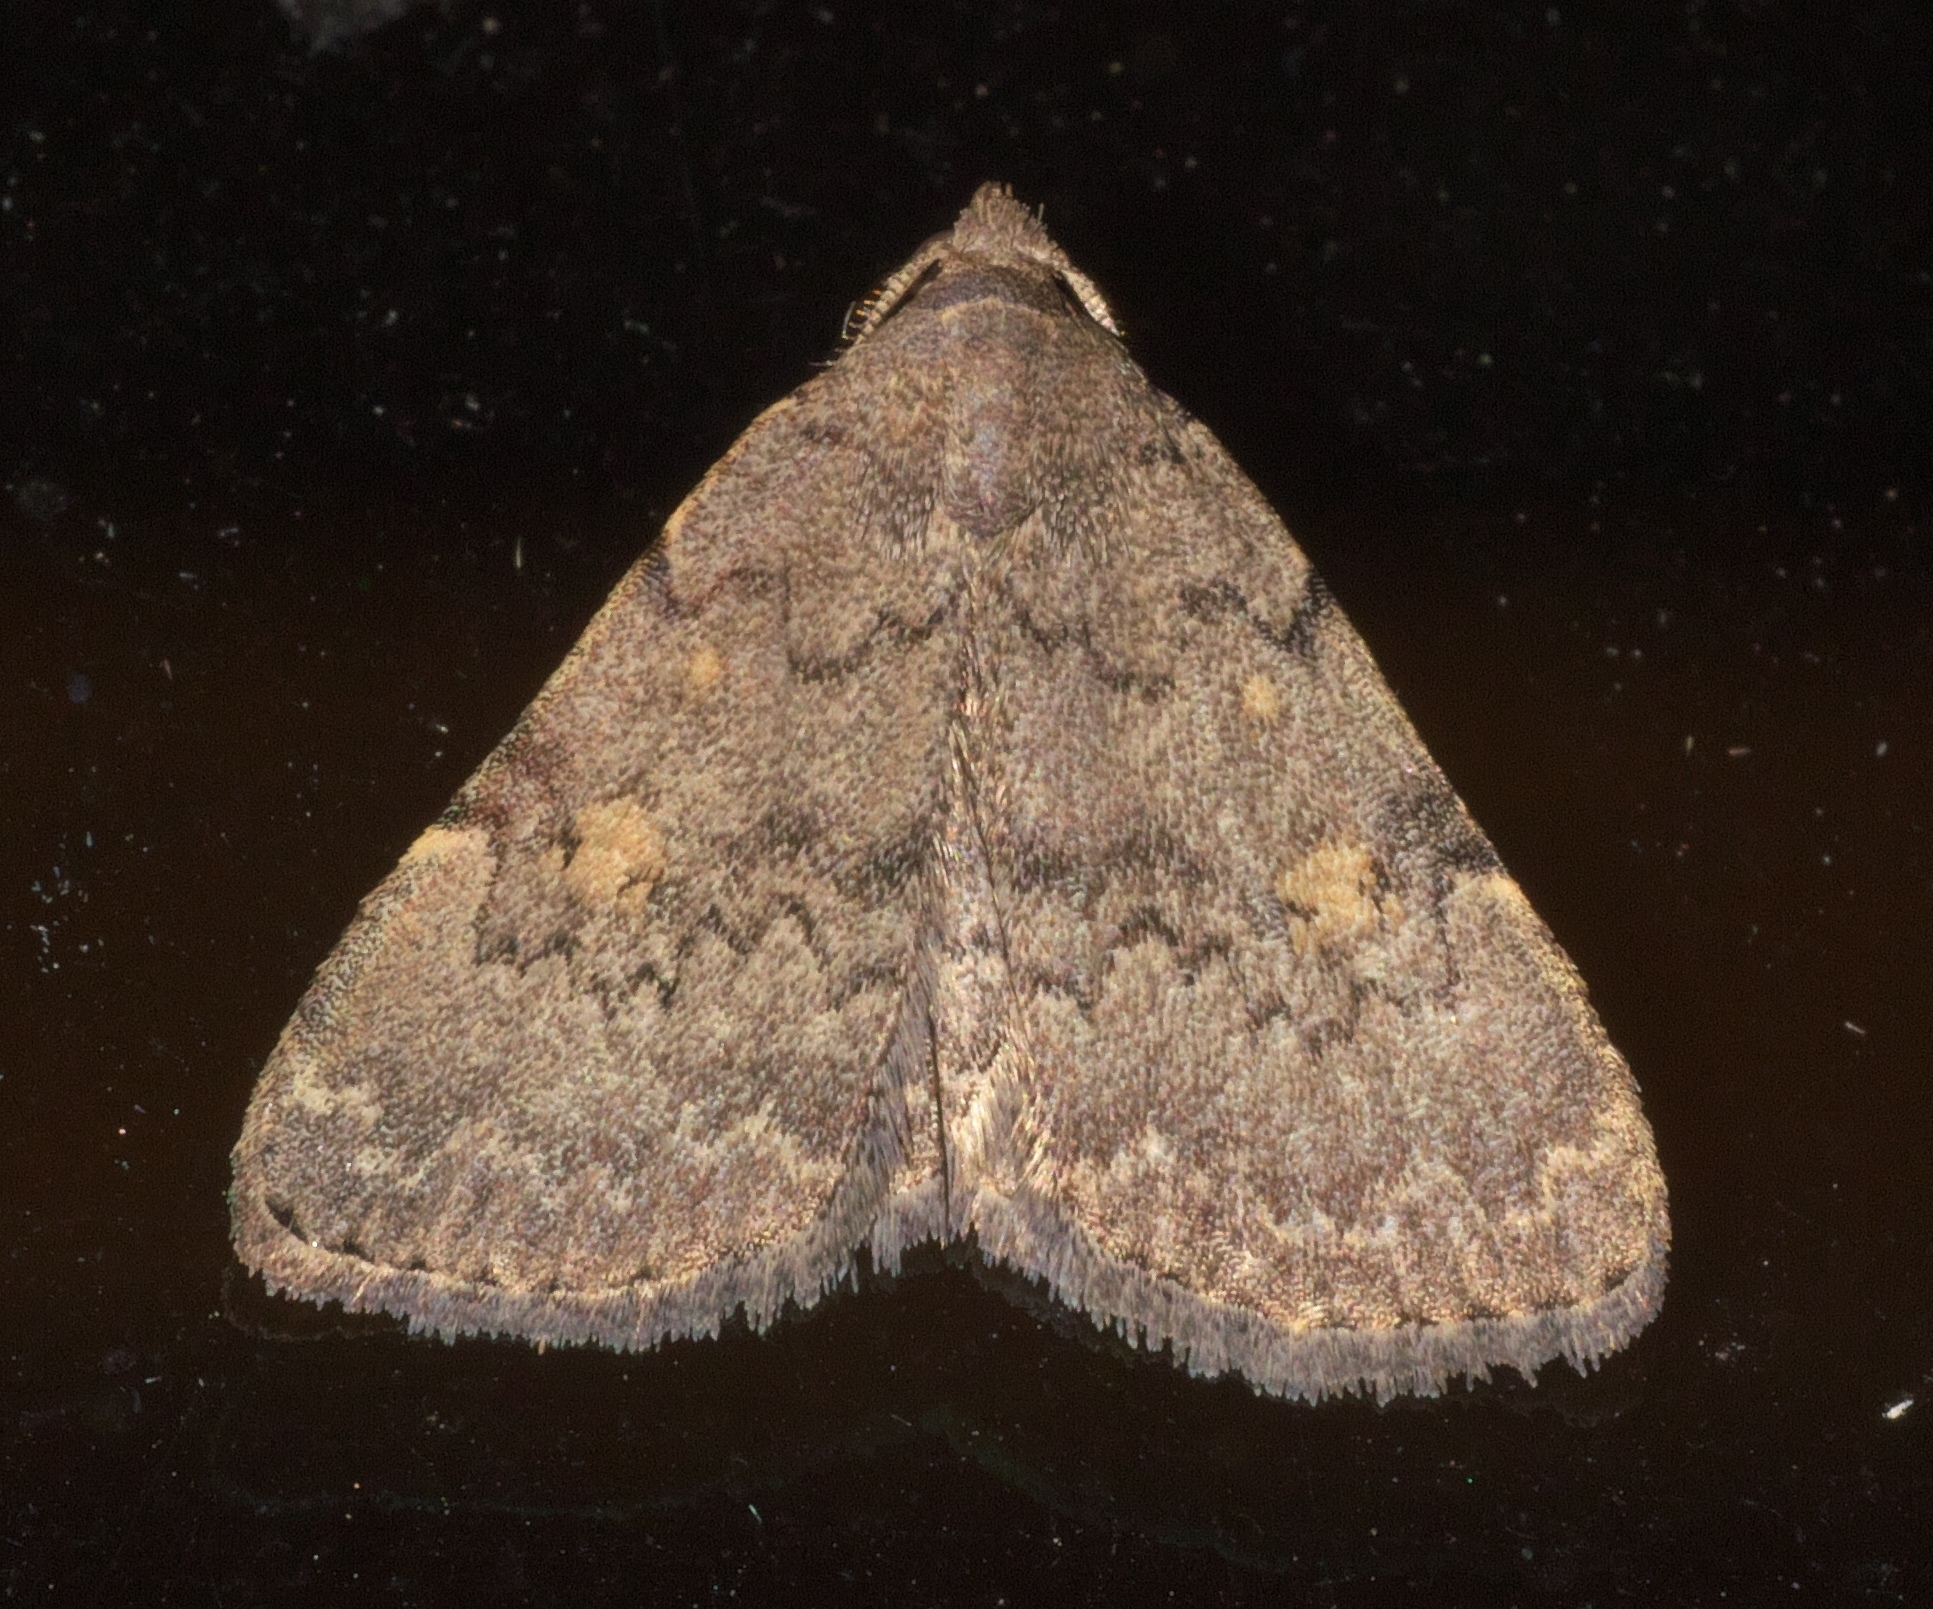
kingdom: Animalia
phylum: Arthropoda
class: Insecta
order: Lepidoptera
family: Erebidae
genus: Idia
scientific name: Idia aemula
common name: Common idia moth
